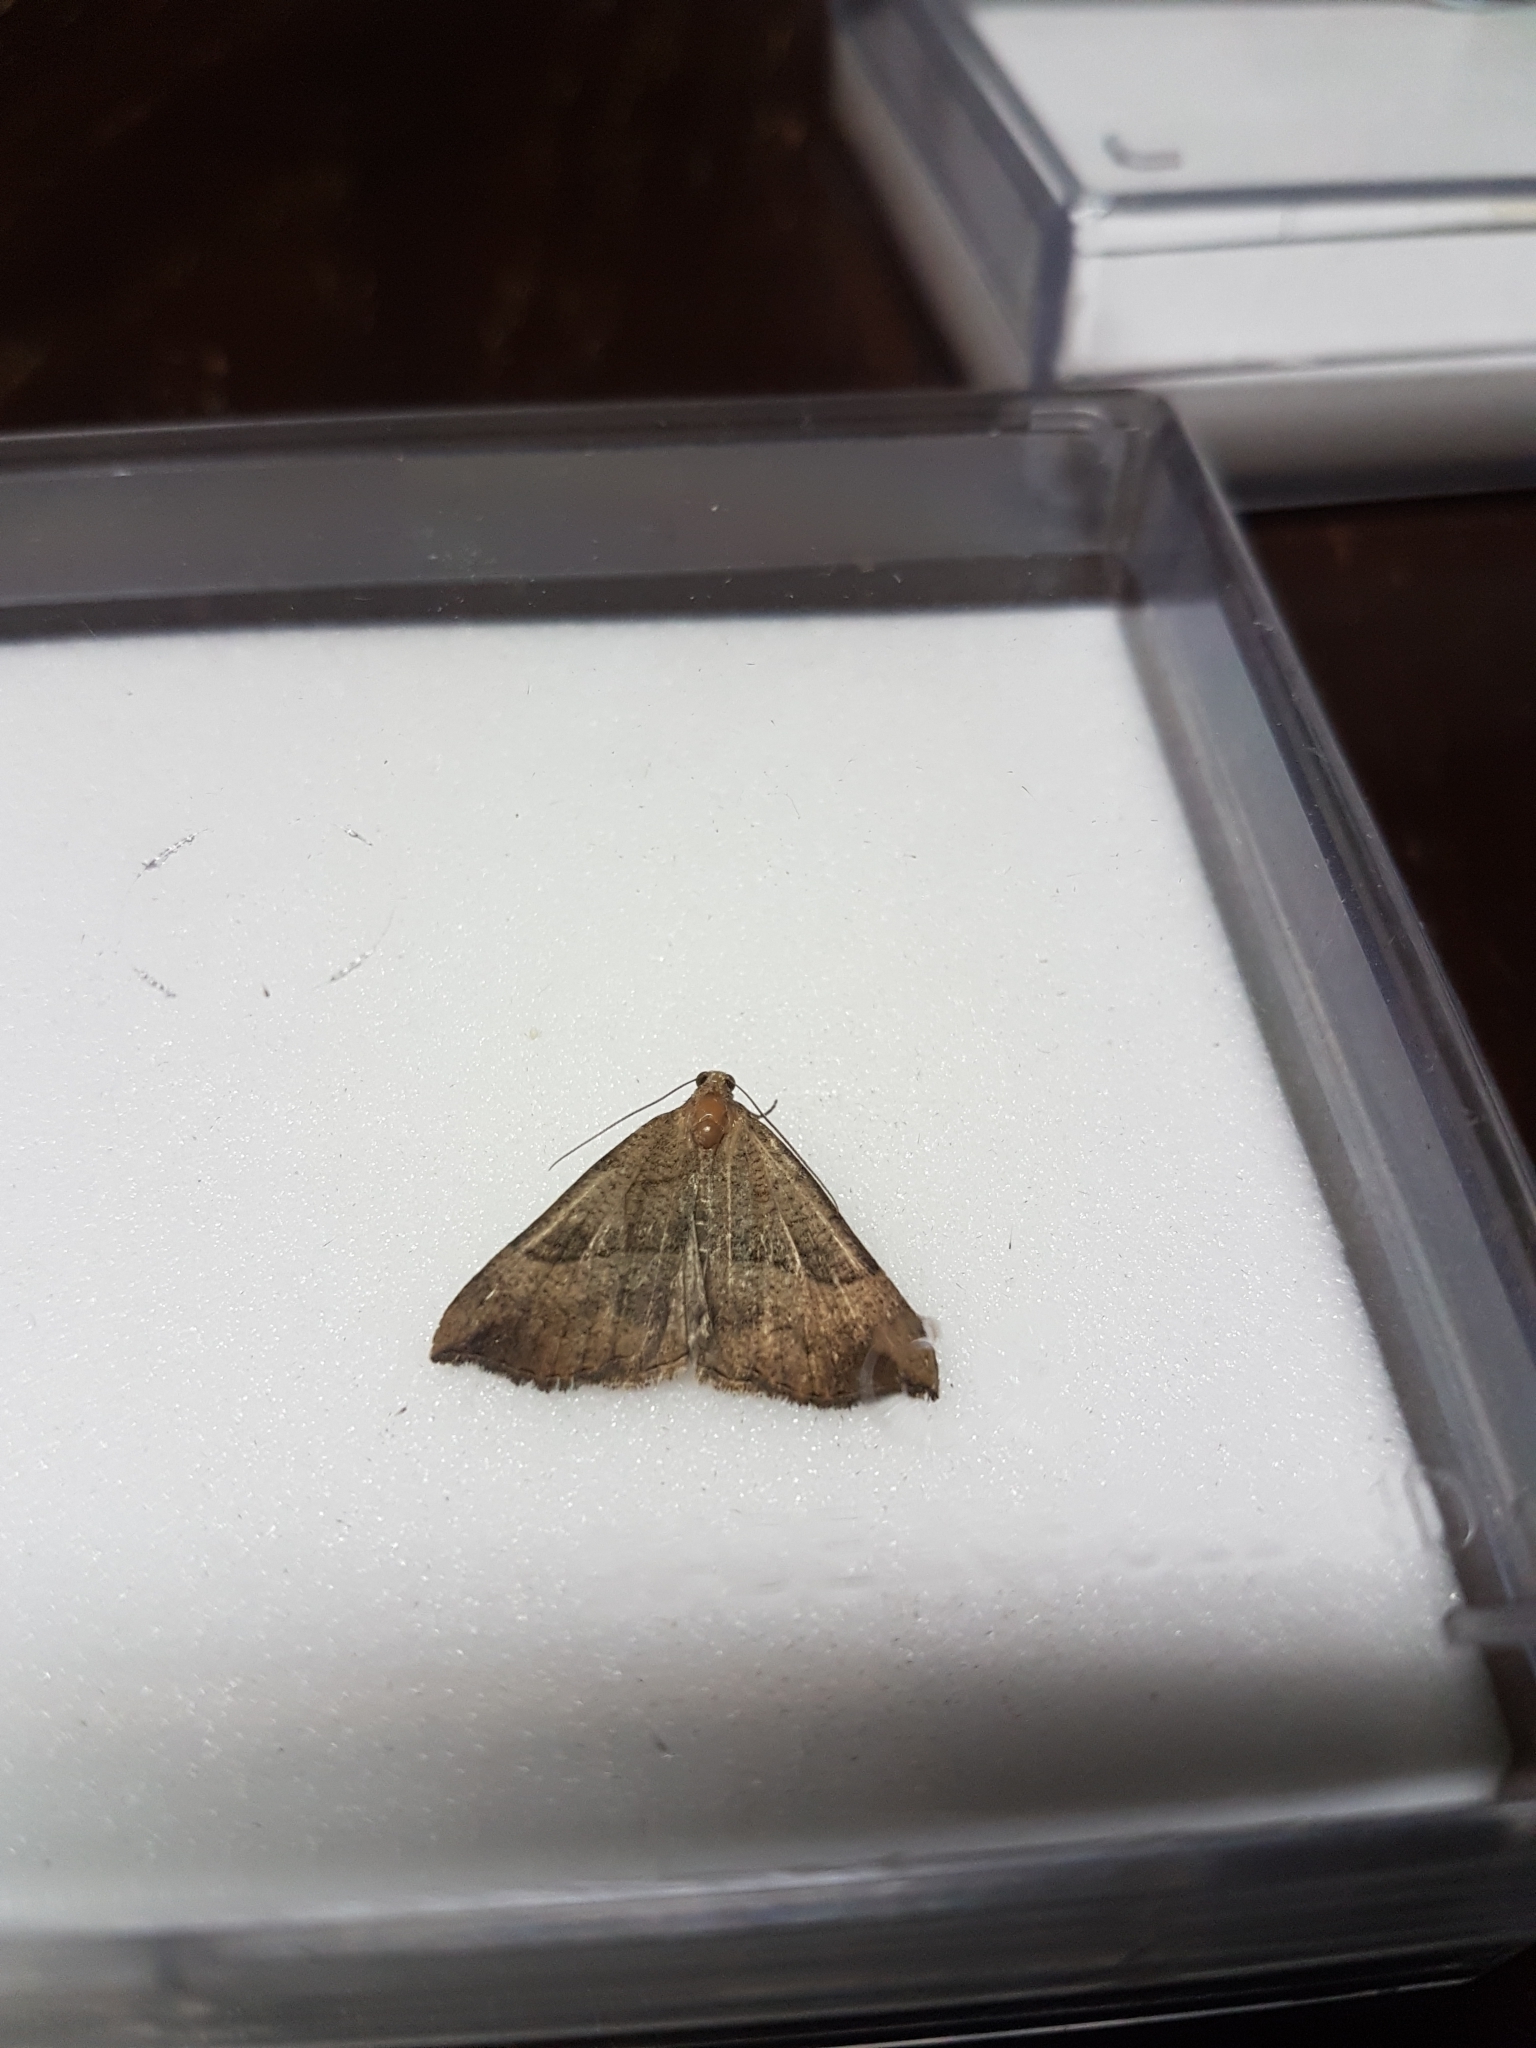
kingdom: Animalia
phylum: Arthropoda
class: Insecta
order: Lepidoptera
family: Erebidae
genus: Hypena
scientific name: Hypena proboscidalis
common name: Snout
